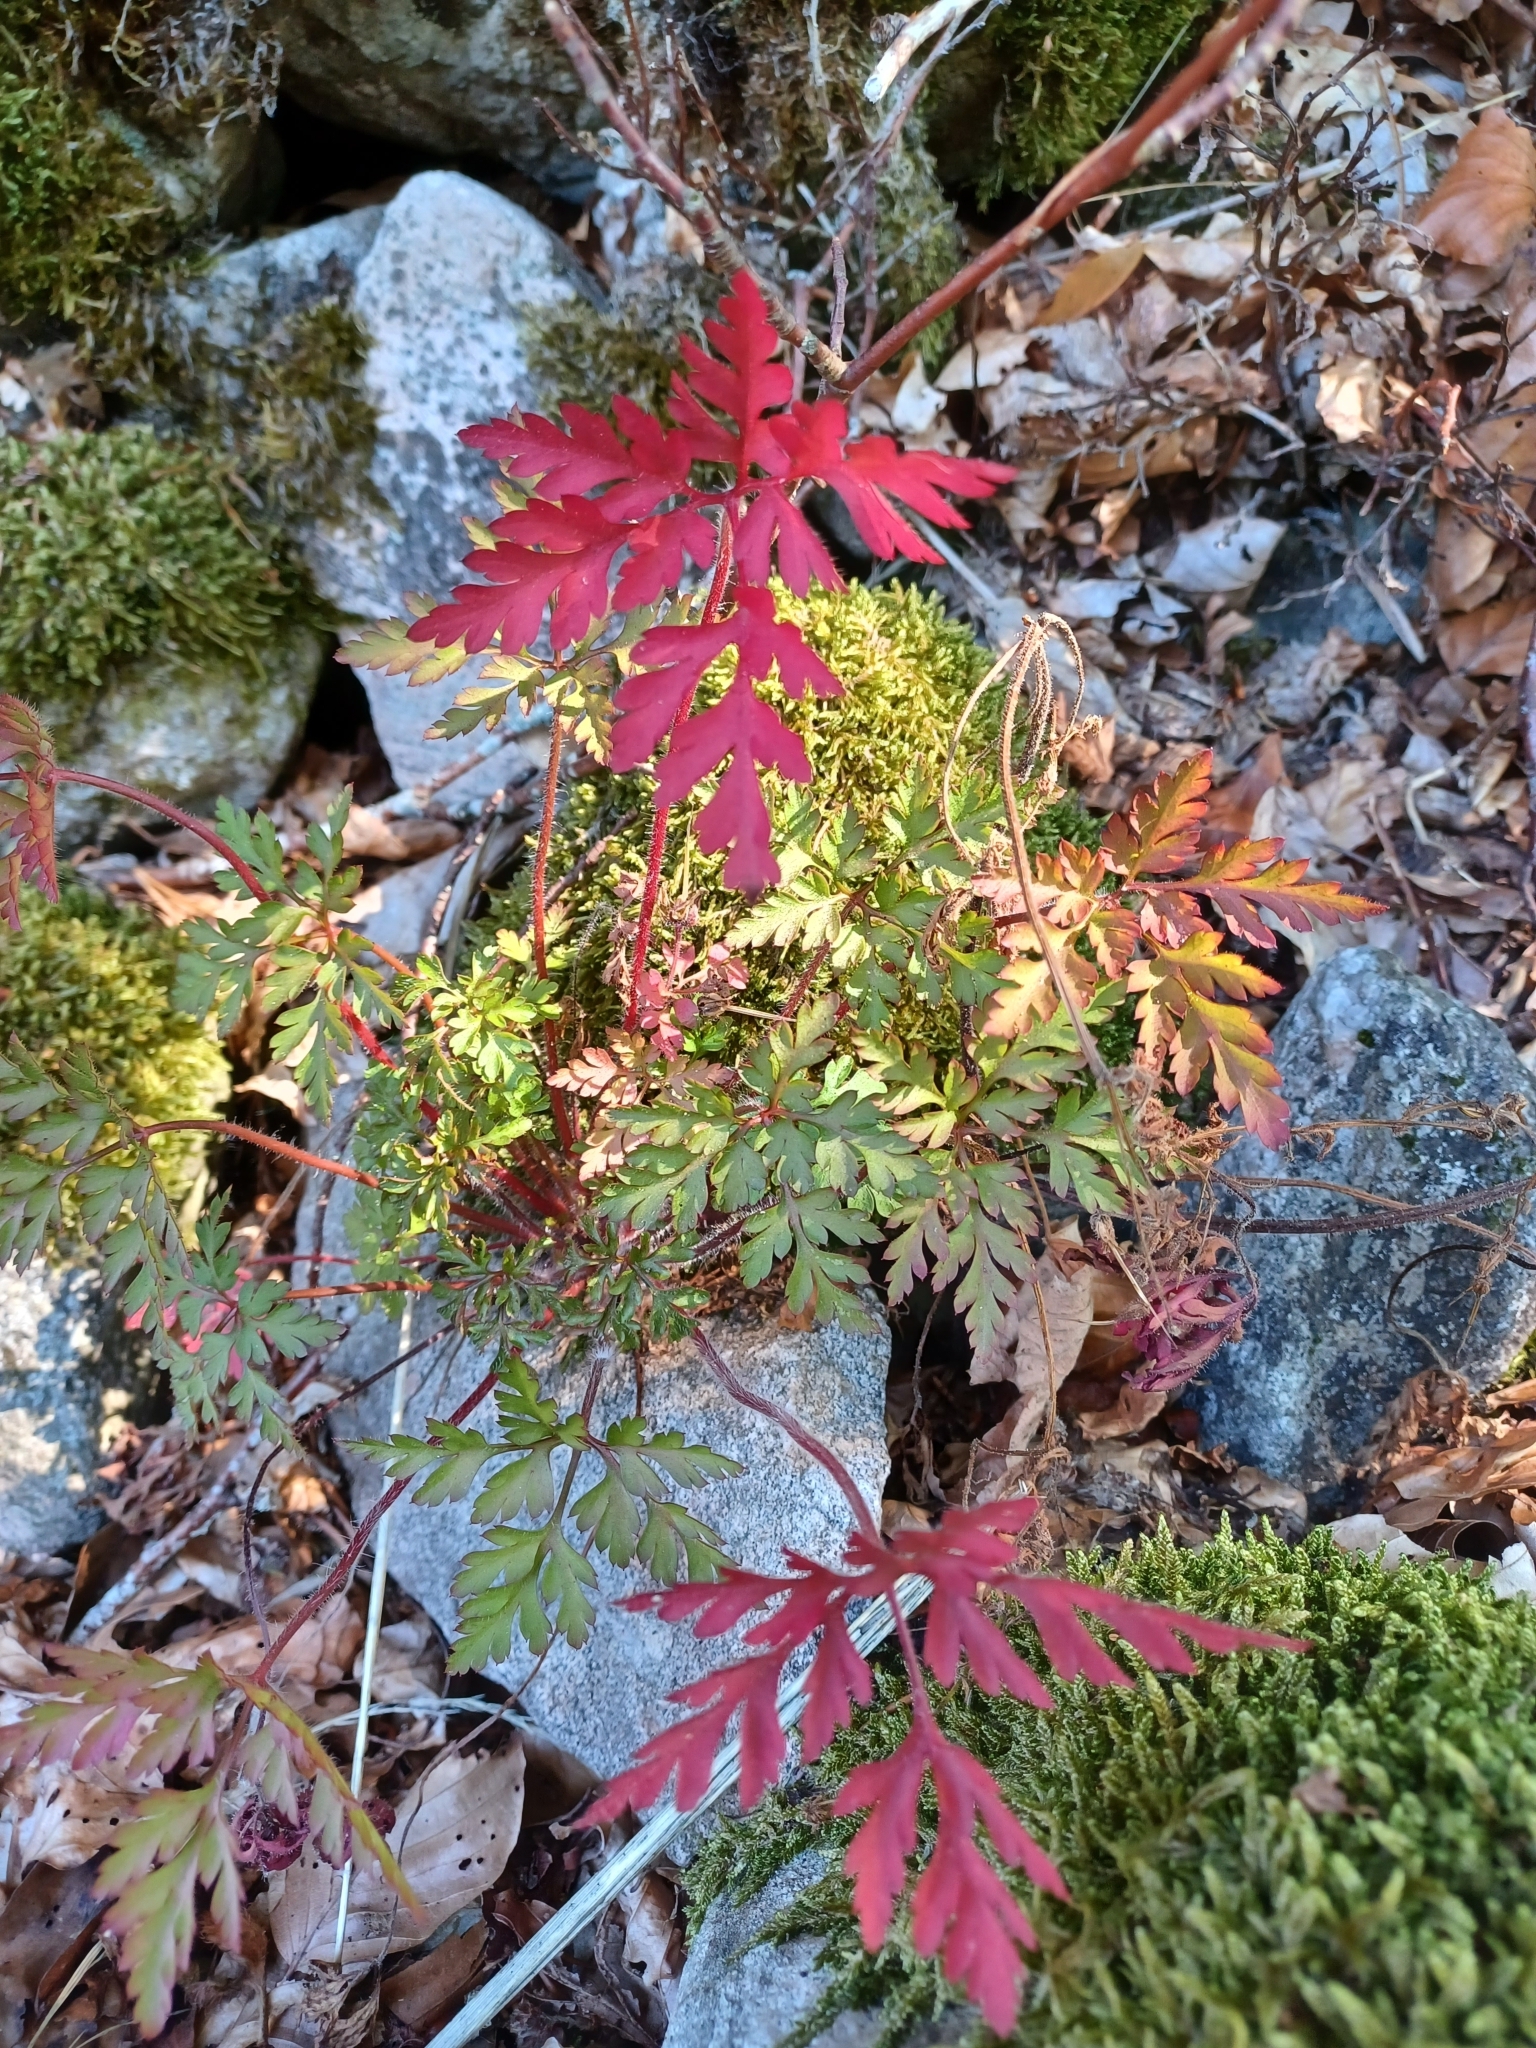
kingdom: Plantae
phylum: Tracheophyta
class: Magnoliopsida
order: Geraniales
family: Geraniaceae
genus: Geranium
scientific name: Geranium robertianum
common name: Herb-robert
